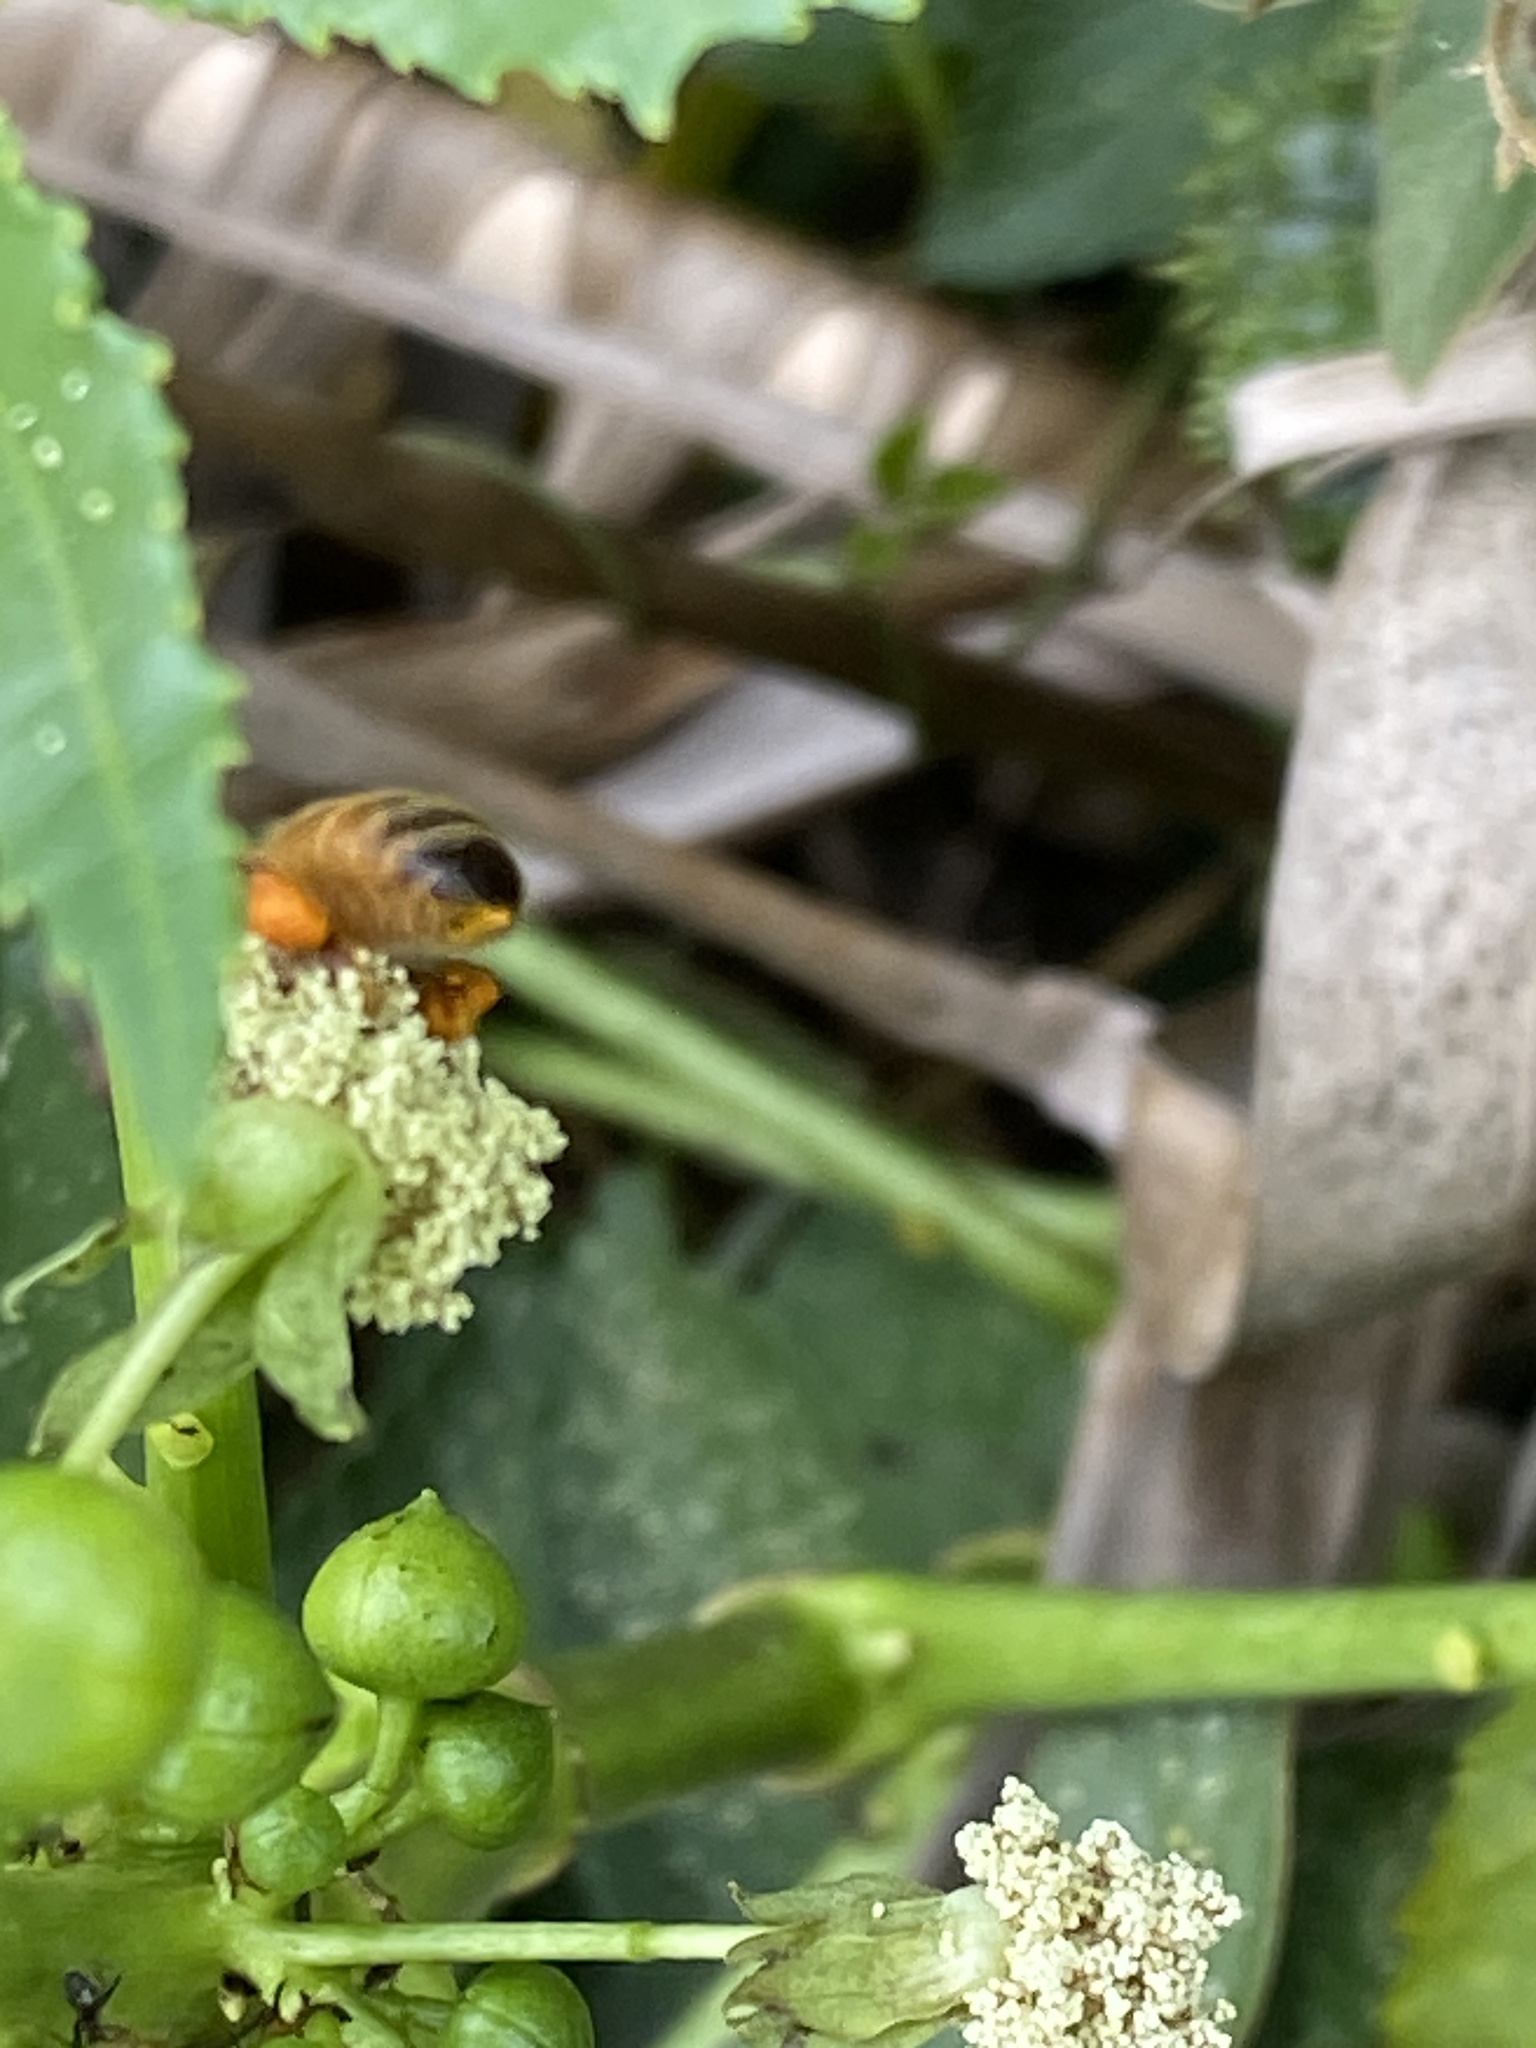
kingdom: Animalia
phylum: Arthropoda
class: Insecta
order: Hymenoptera
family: Apidae
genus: Apis
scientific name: Apis mellifera
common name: Honey bee
